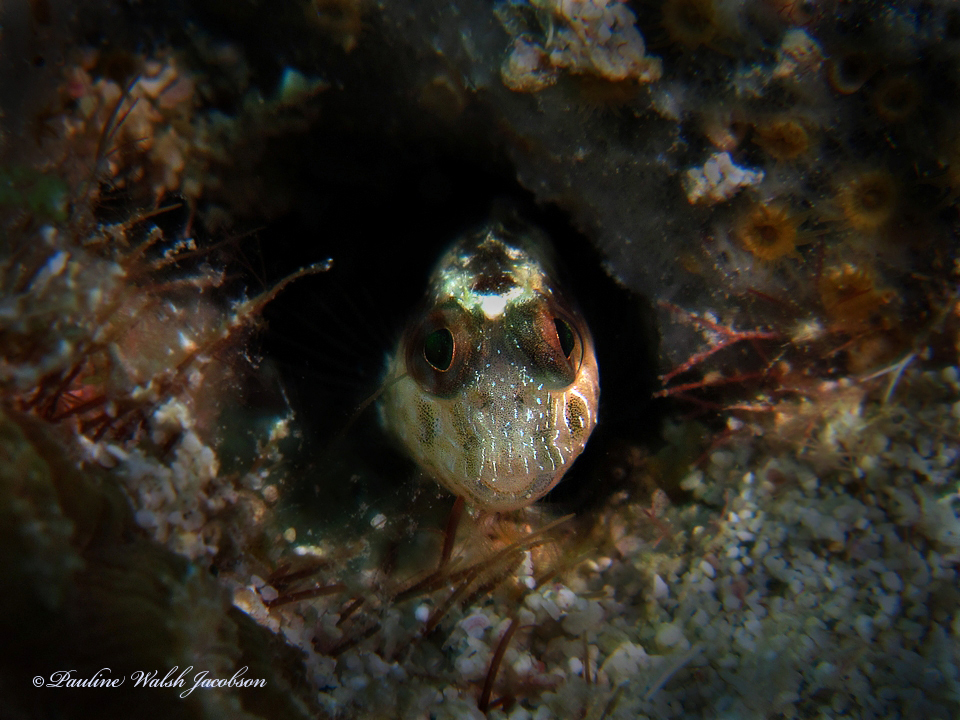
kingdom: Animalia
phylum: Chordata
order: Perciformes
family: Blenniidae
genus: Parablennius
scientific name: Parablennius marmoreus
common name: Seaweed blenny
